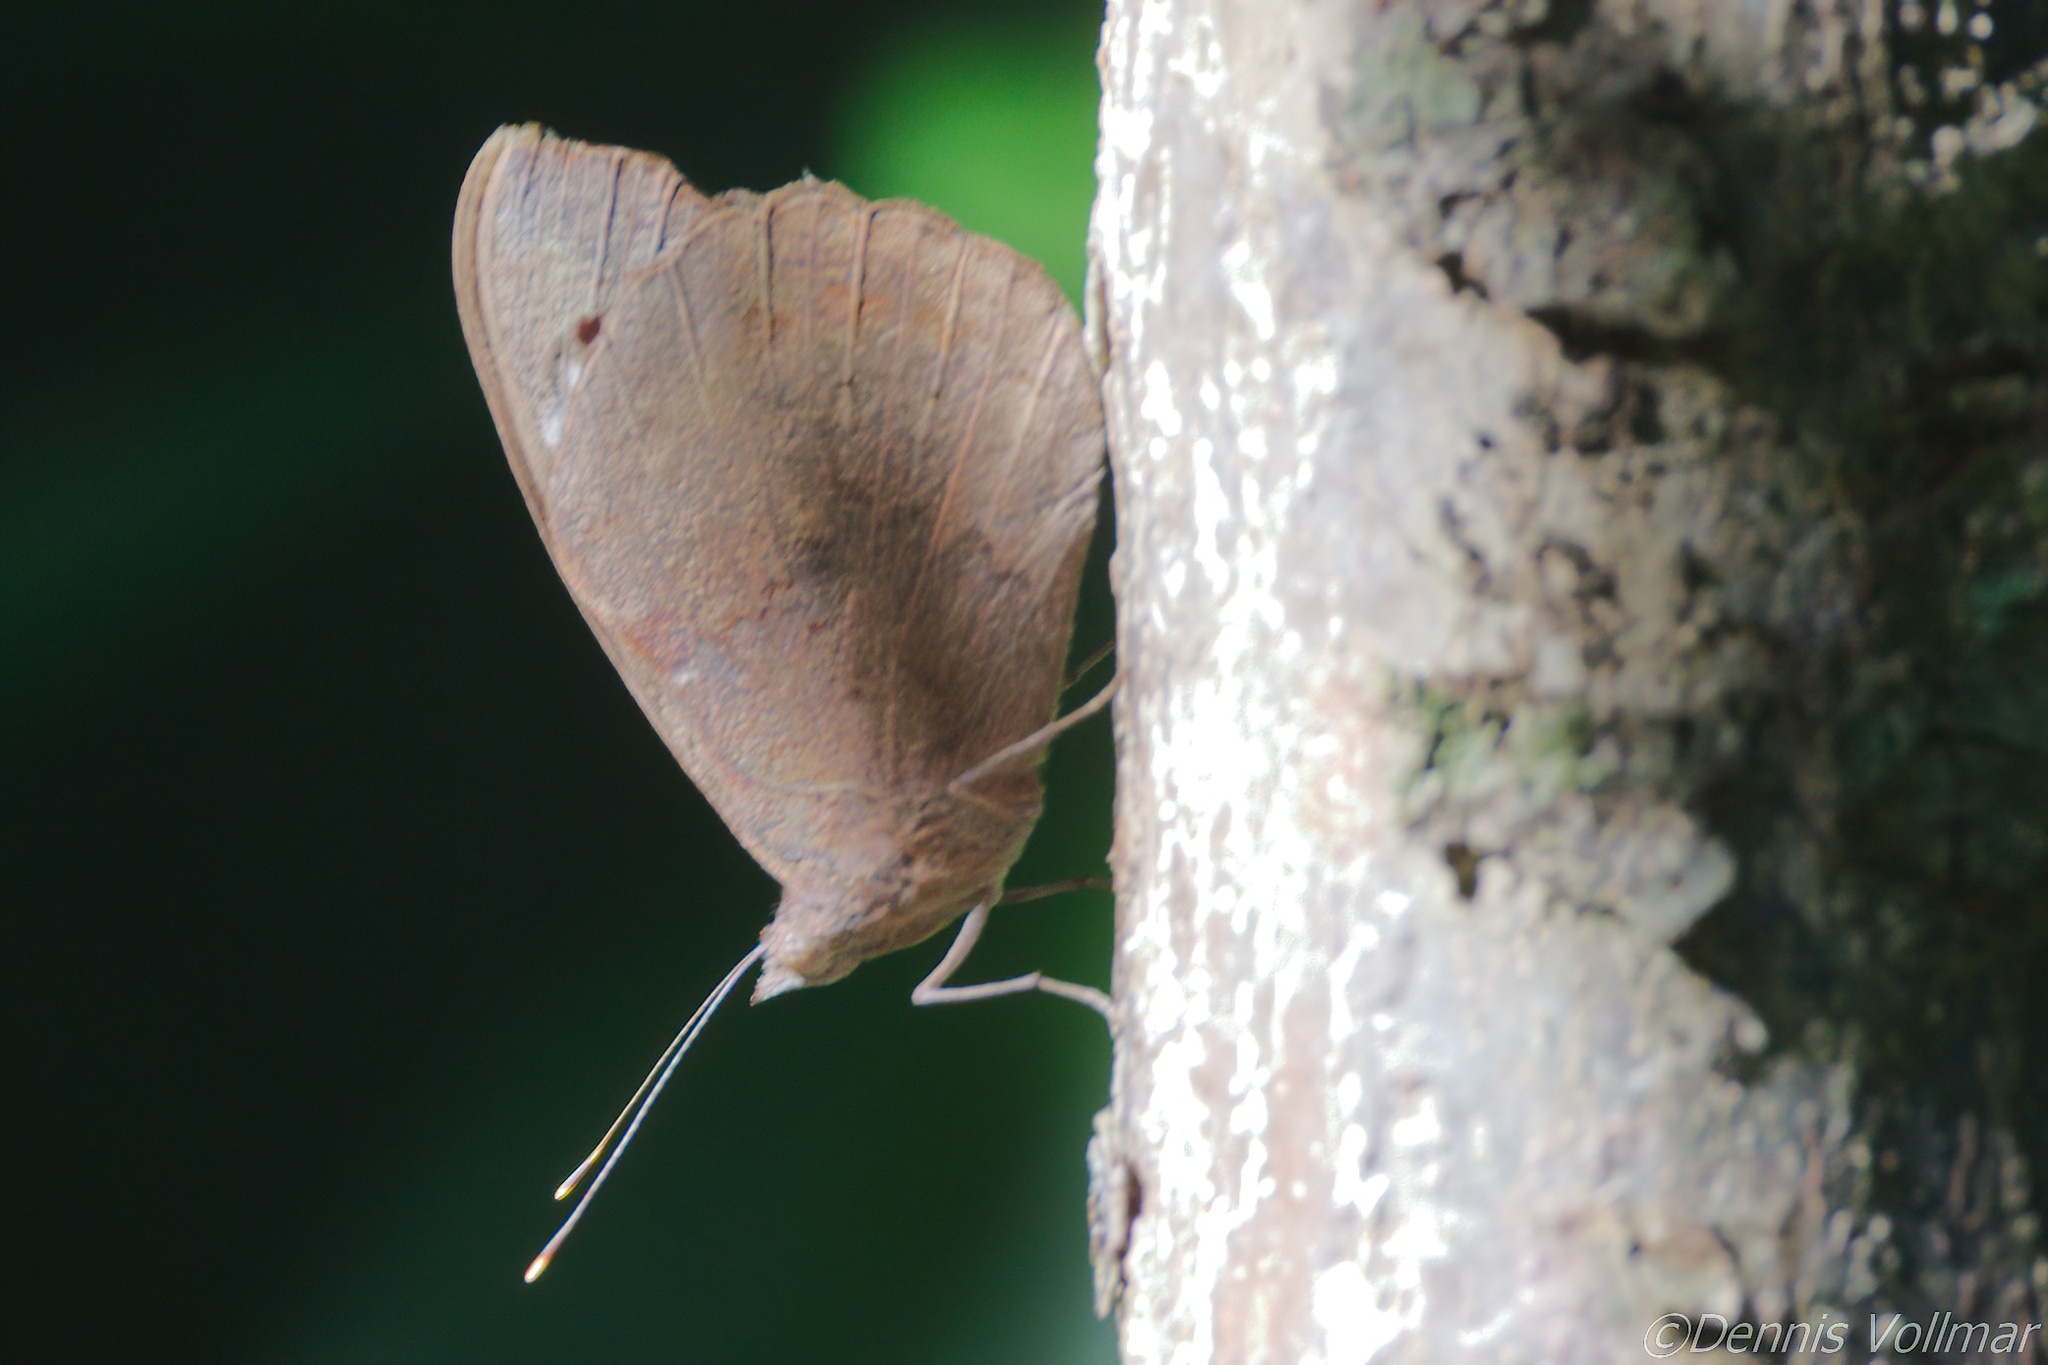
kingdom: Animalia
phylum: Arthropoda
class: Insecta
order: Lepidoptera
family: Nymphalidae
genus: Eunica
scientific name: Eunica tatila
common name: Florida purplewing
